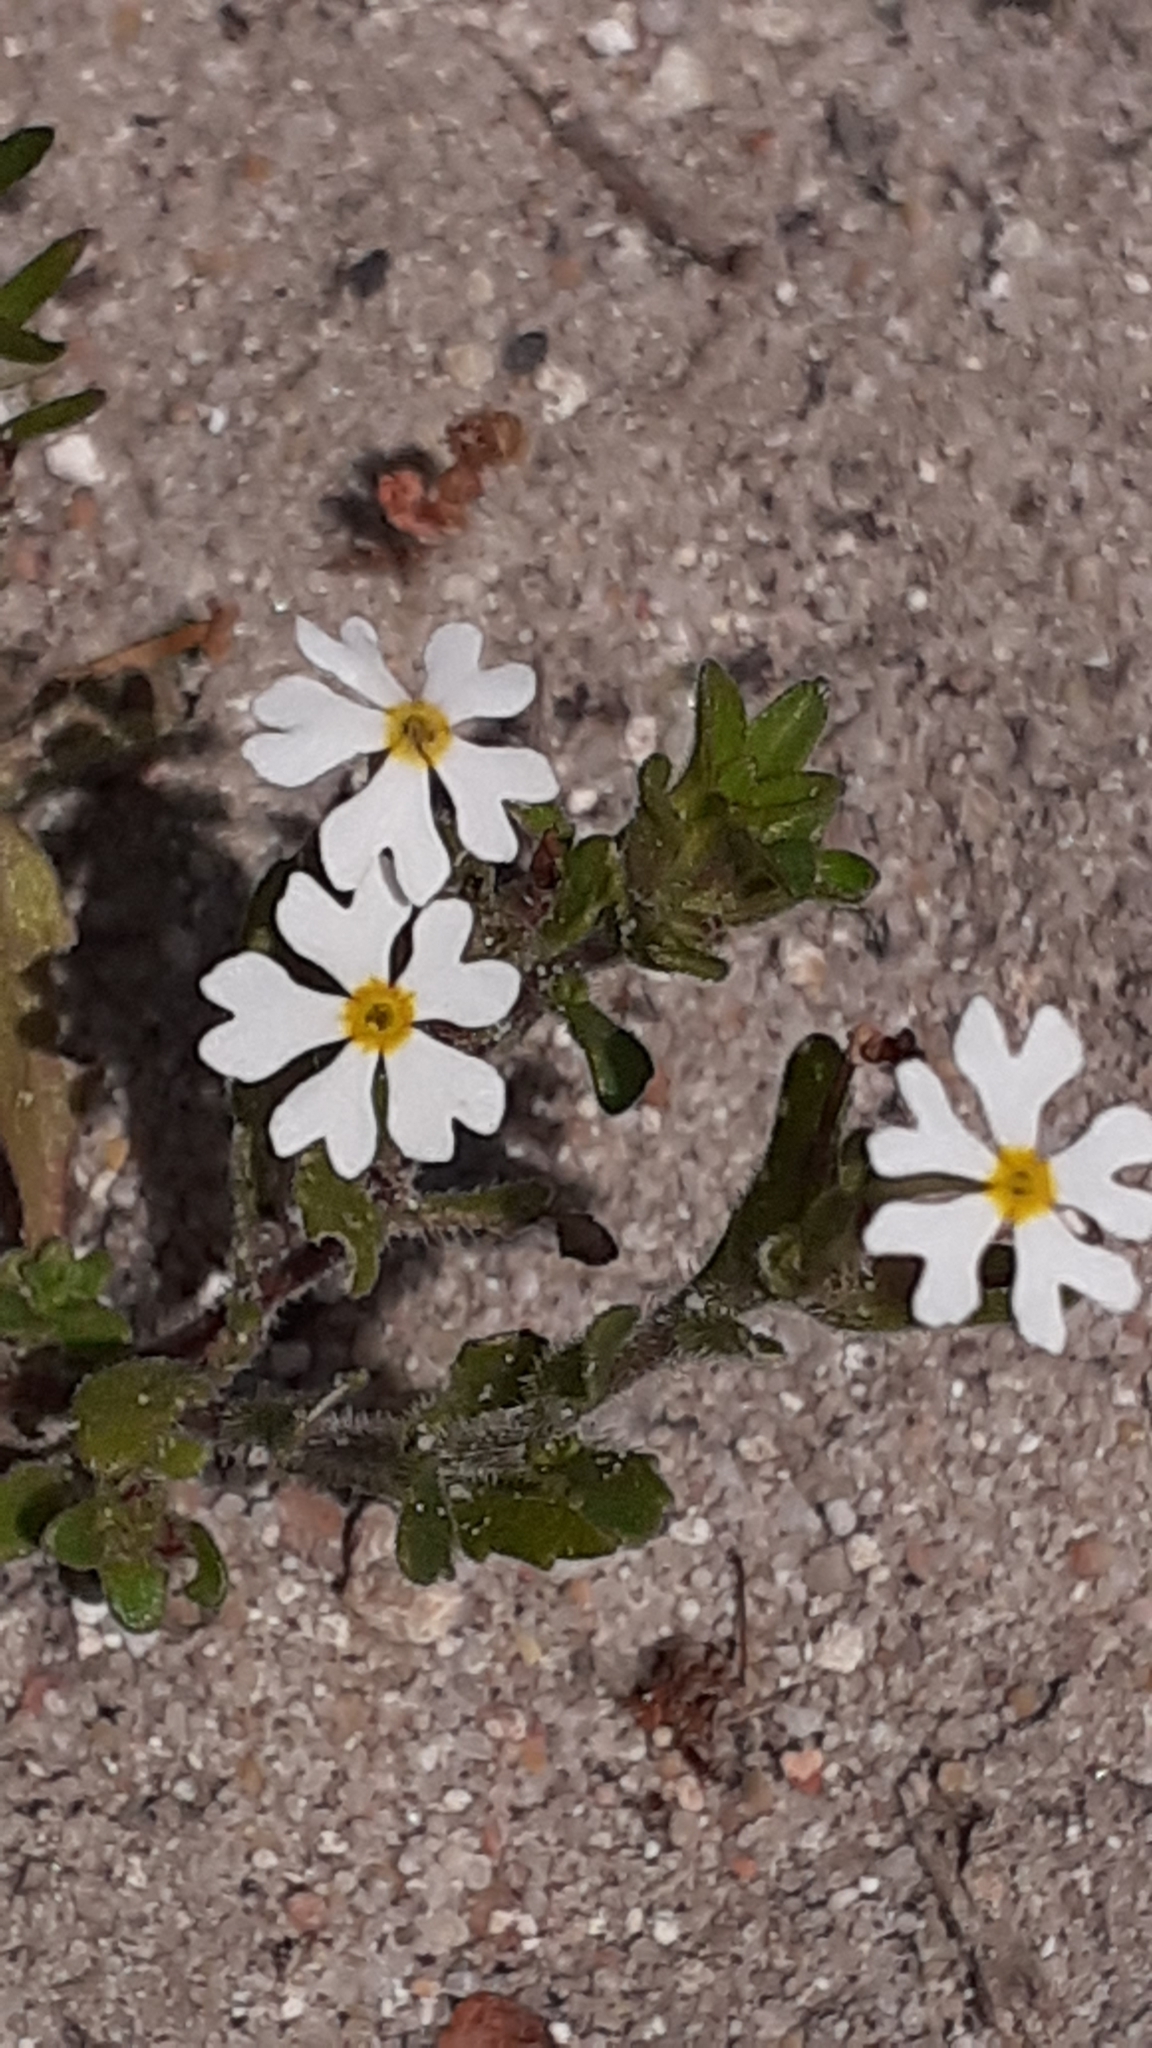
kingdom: Plantae
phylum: Tracheophyta
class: Magnoliopsida
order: Lamiales
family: Scrophulariaceae
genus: Zaluzianskya
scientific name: Zaluzianskya villosa
